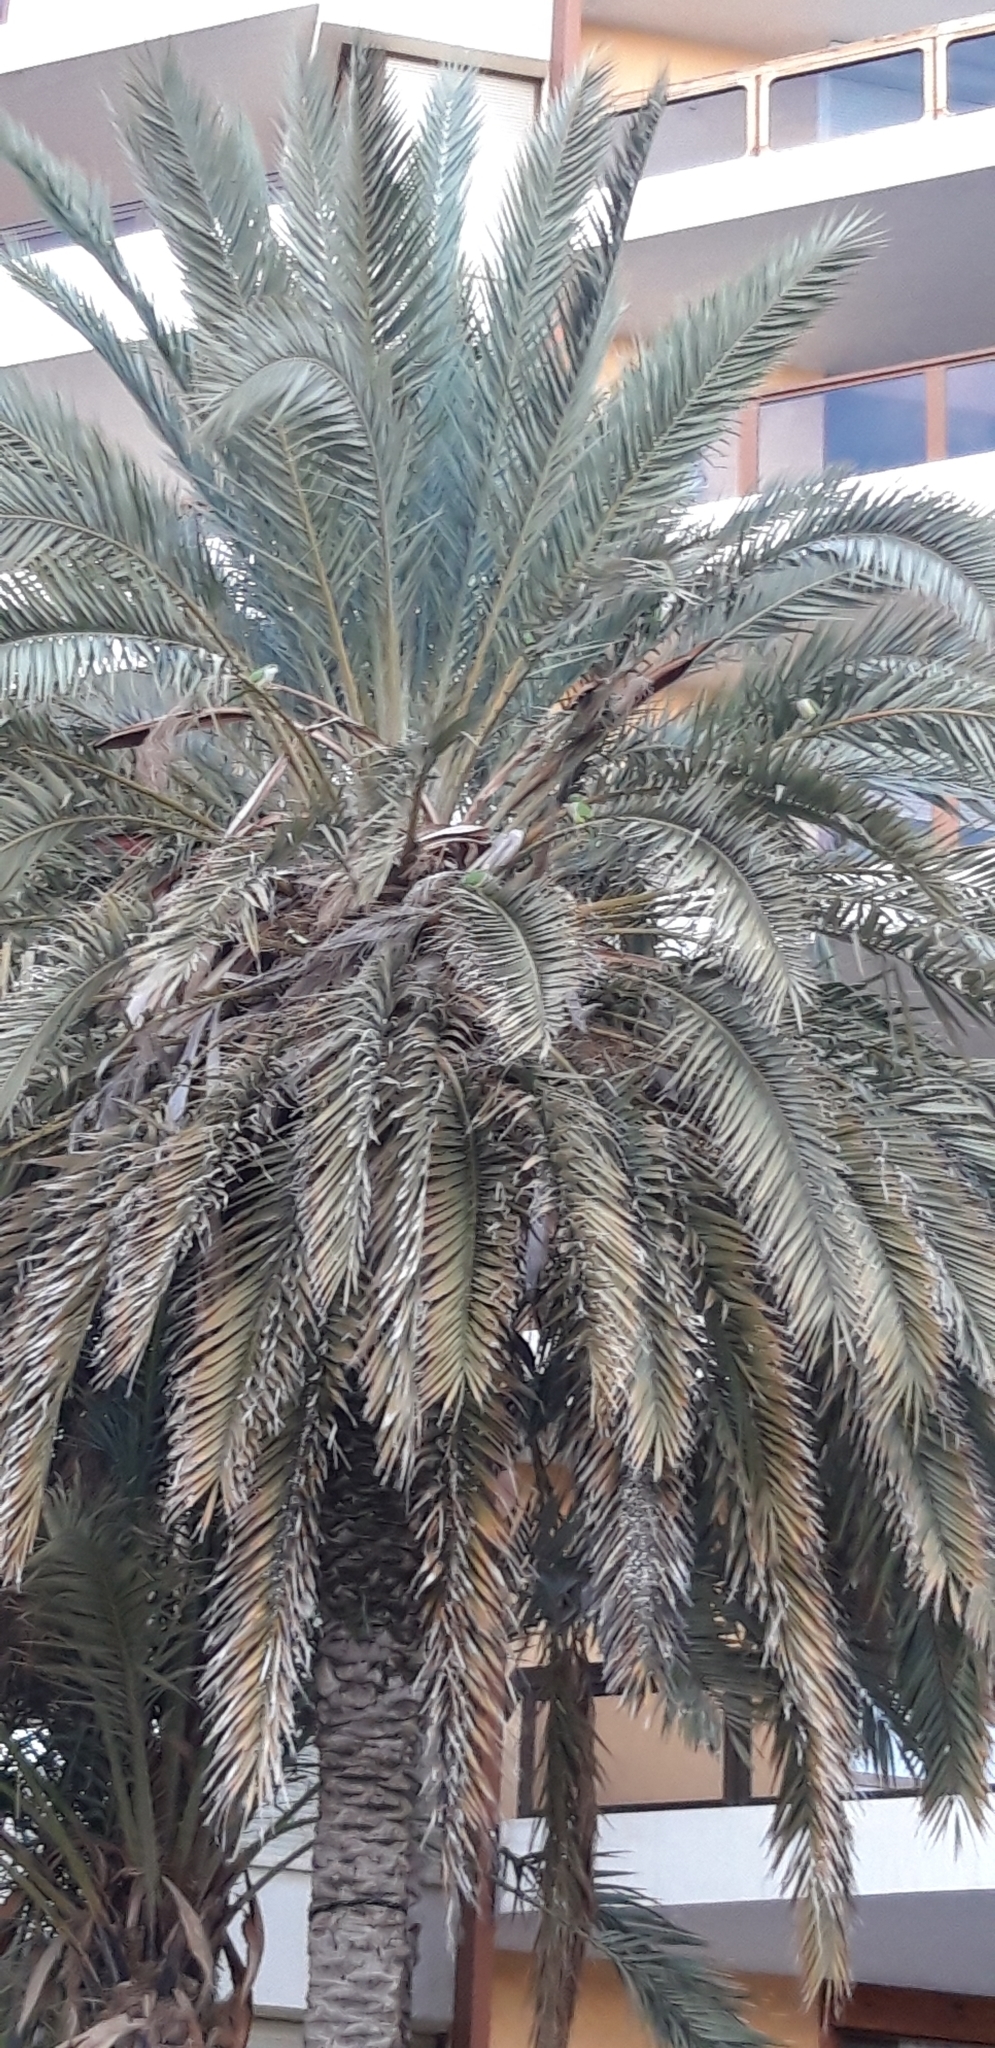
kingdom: Animalia
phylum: Chordata
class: Aves
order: Psittaciformes
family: Psittacidae
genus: Myiopsitta
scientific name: Myiopsitta monachus
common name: Monk parakeet
